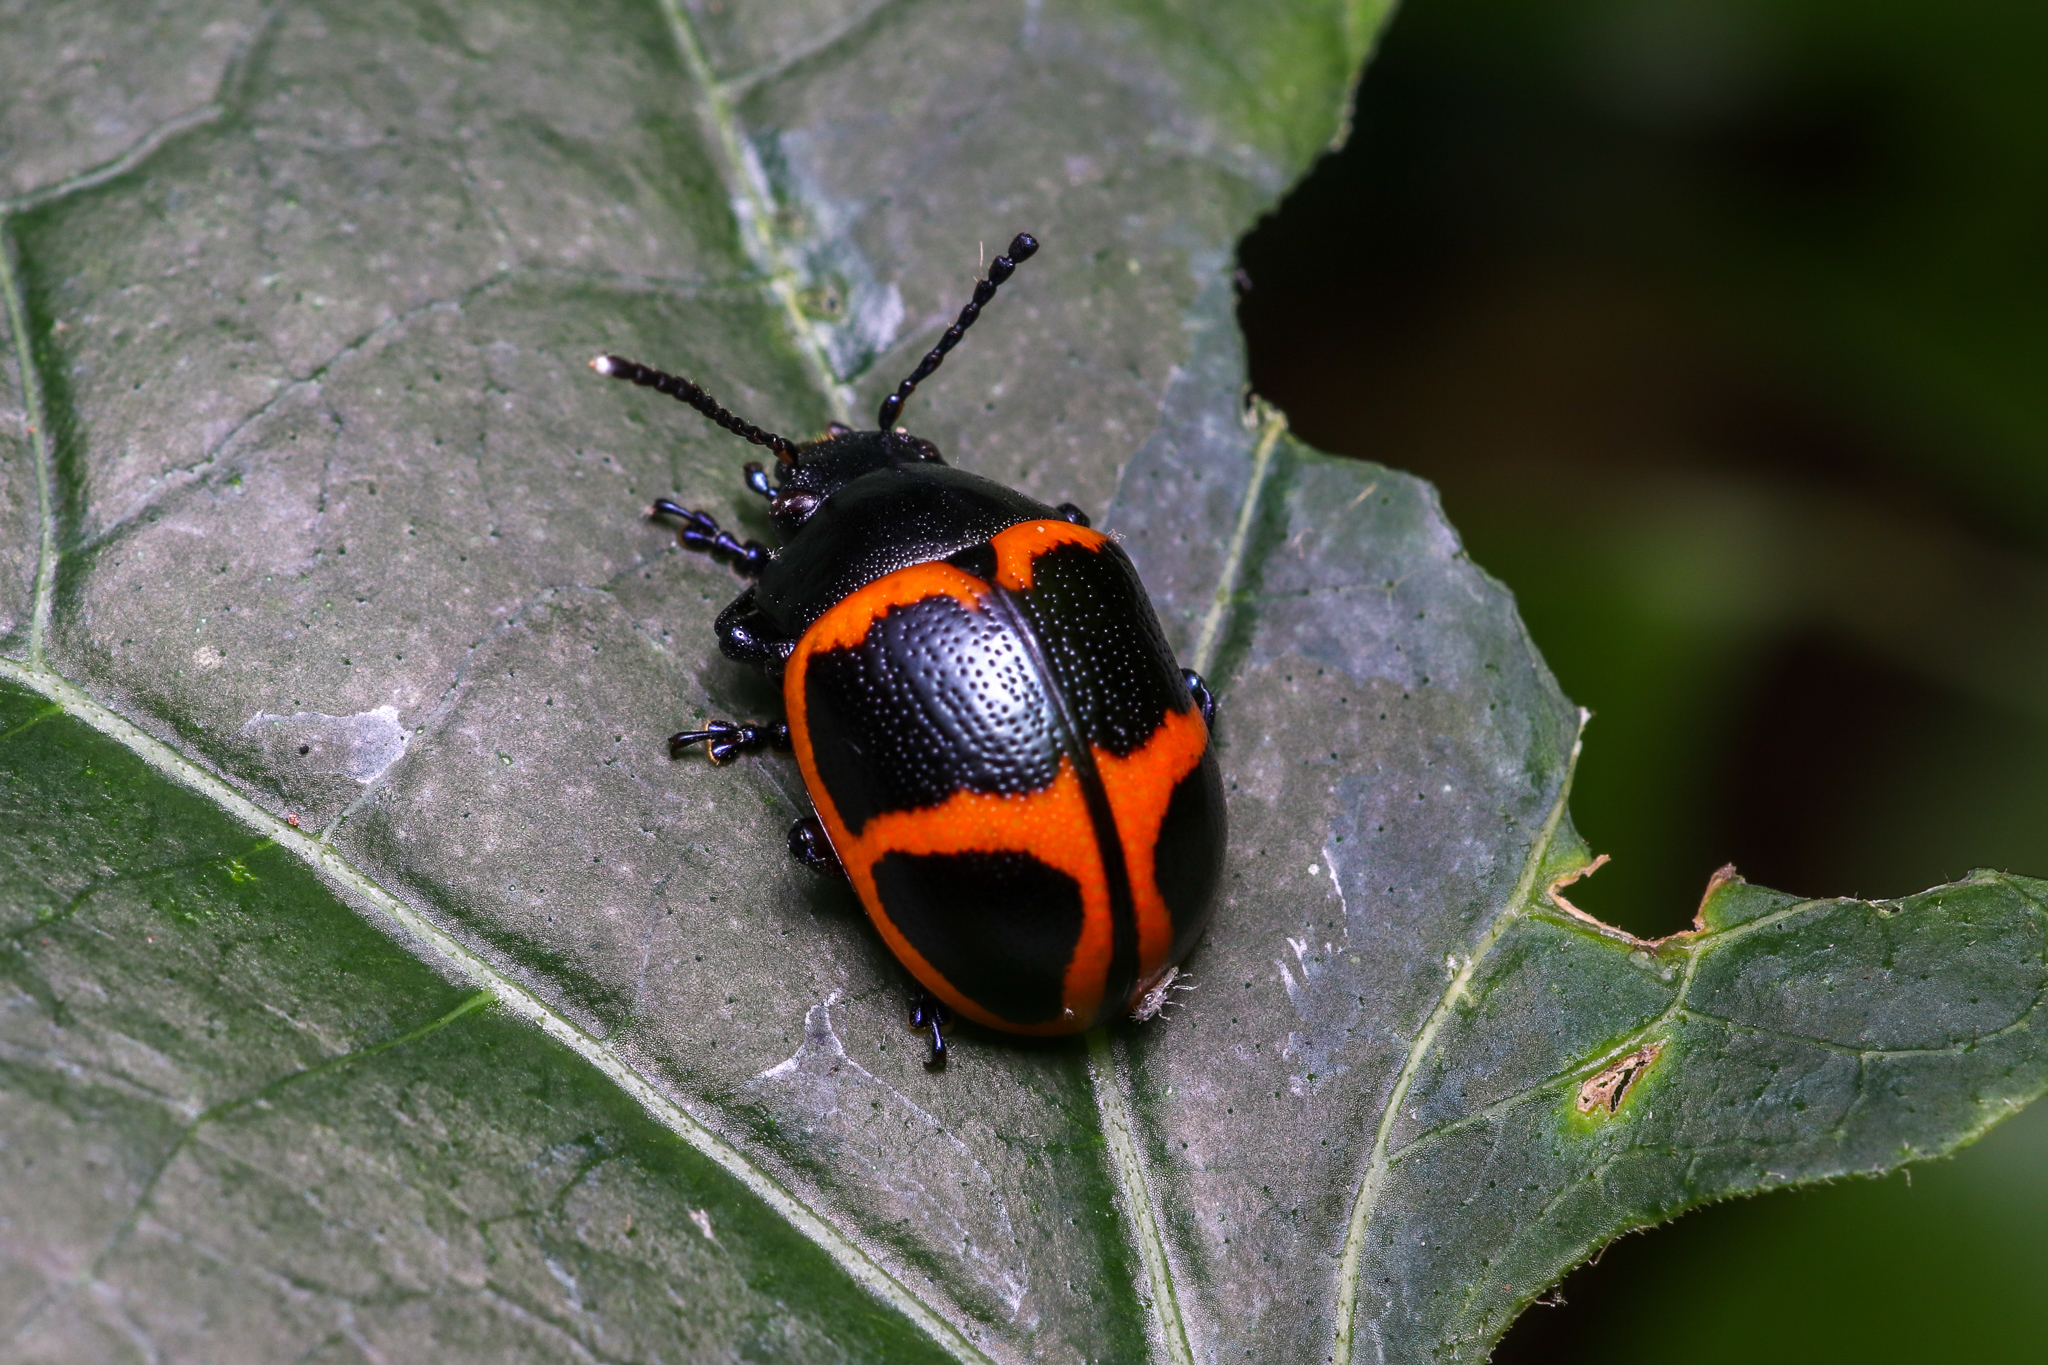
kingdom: Animalia
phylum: Arthropoda
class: Insecta
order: Coleoptera
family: Chrysomelidae
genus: Labidomera
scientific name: Labidomera clivicollis
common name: Swamp milkweed leaf beetle
